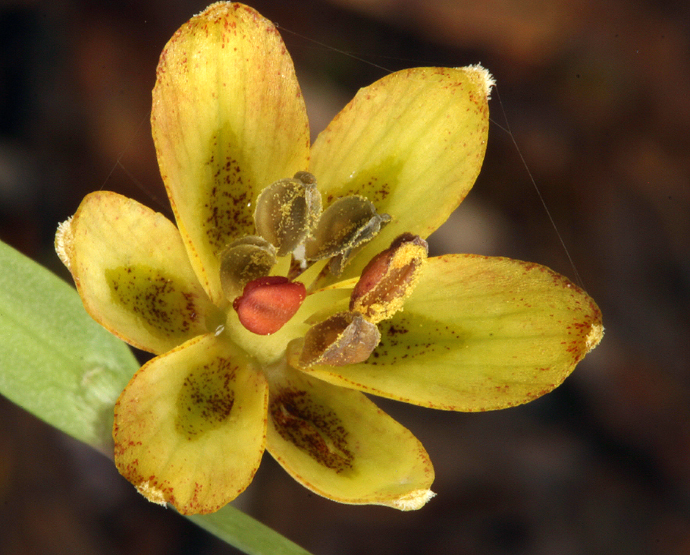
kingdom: Plantae
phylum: Tracheophyta
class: Liliopsida
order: Liliales
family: Liliaceae
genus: Fritillaria
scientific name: Fritillaria micrantha
